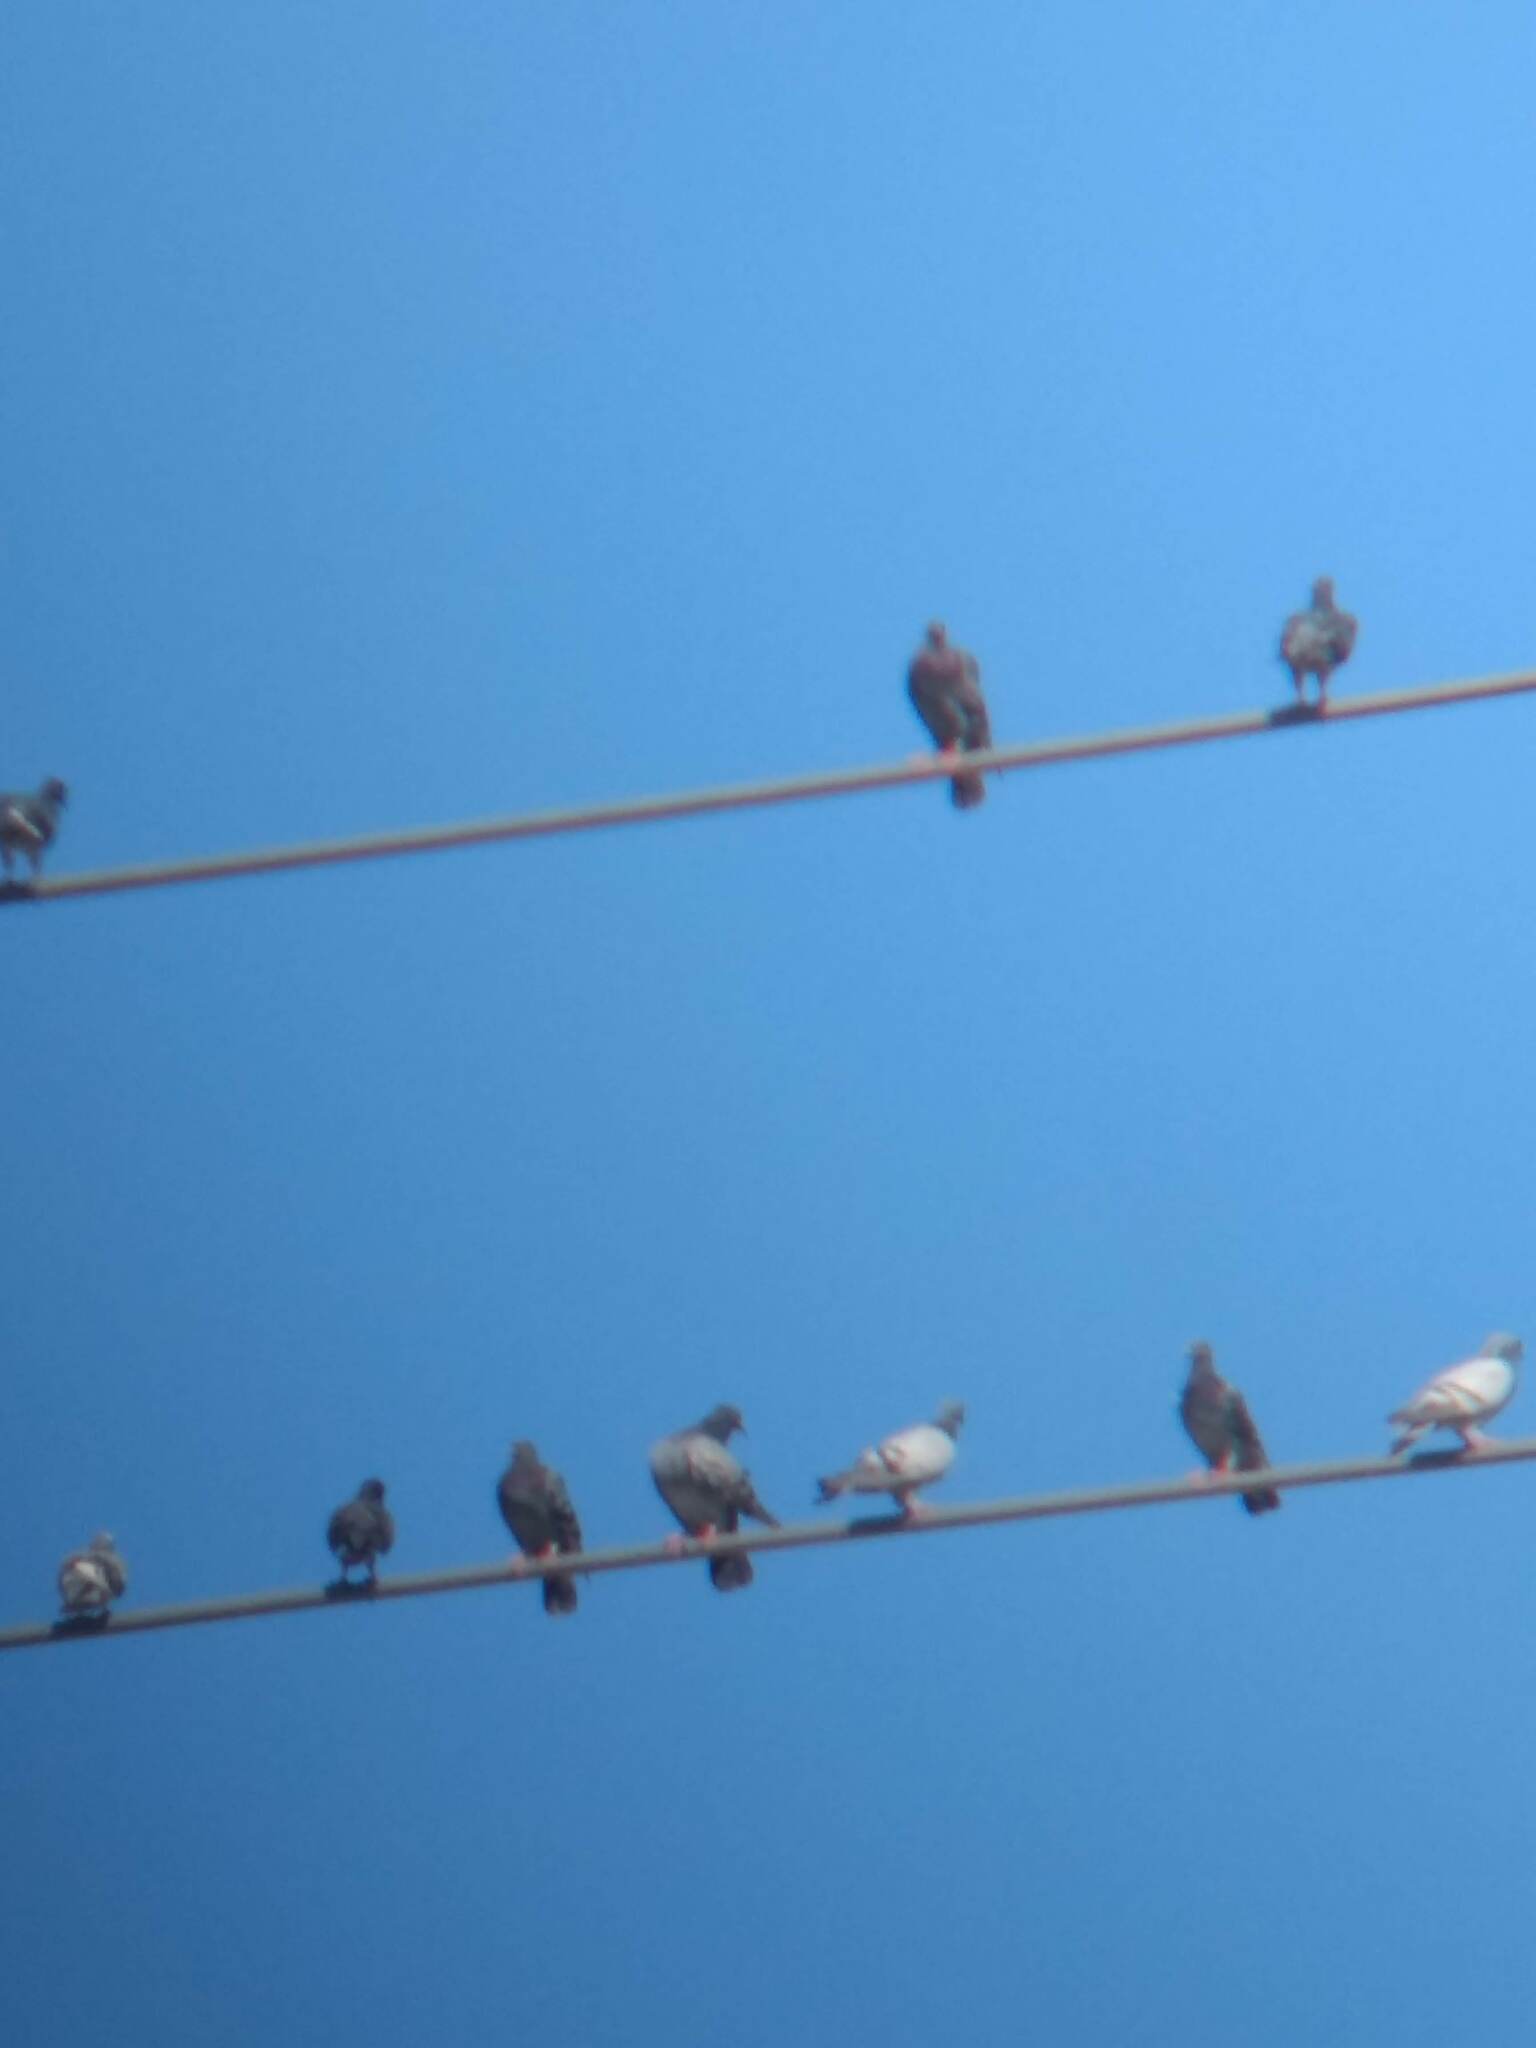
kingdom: Animalia
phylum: Chordata
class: Aves
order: Columbiformes
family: Columbidae
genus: Columba
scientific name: Columba livia
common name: Rock pigeon
